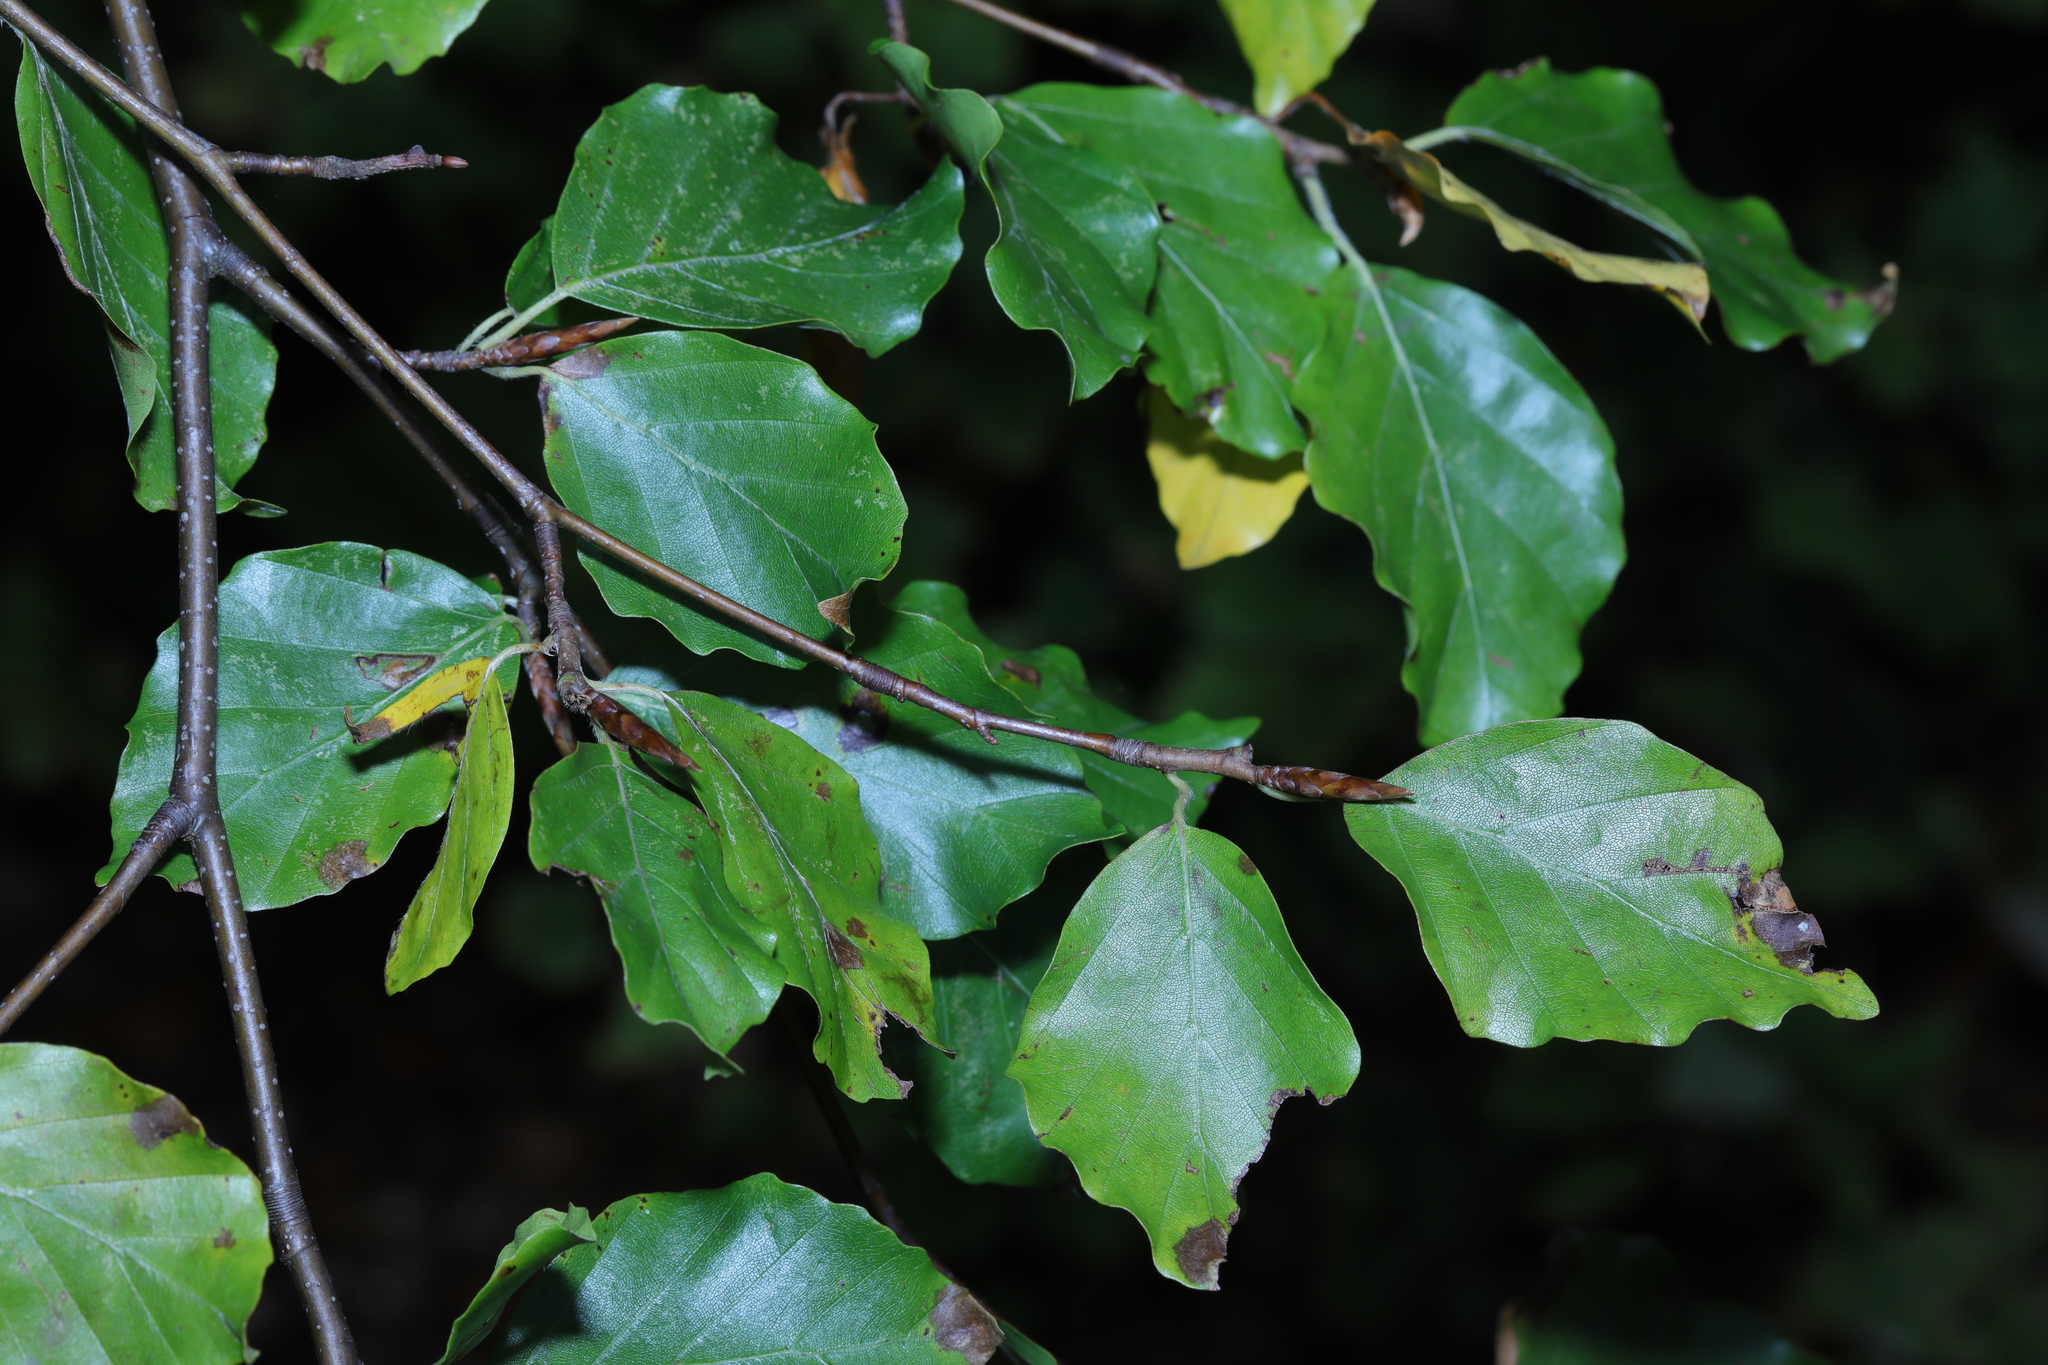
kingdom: Plantae
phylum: Tracheophyta
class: Magnoliopsida
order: Fagales
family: Fagaceae
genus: Fagus
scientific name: Fagus sylvatica
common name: Beech
